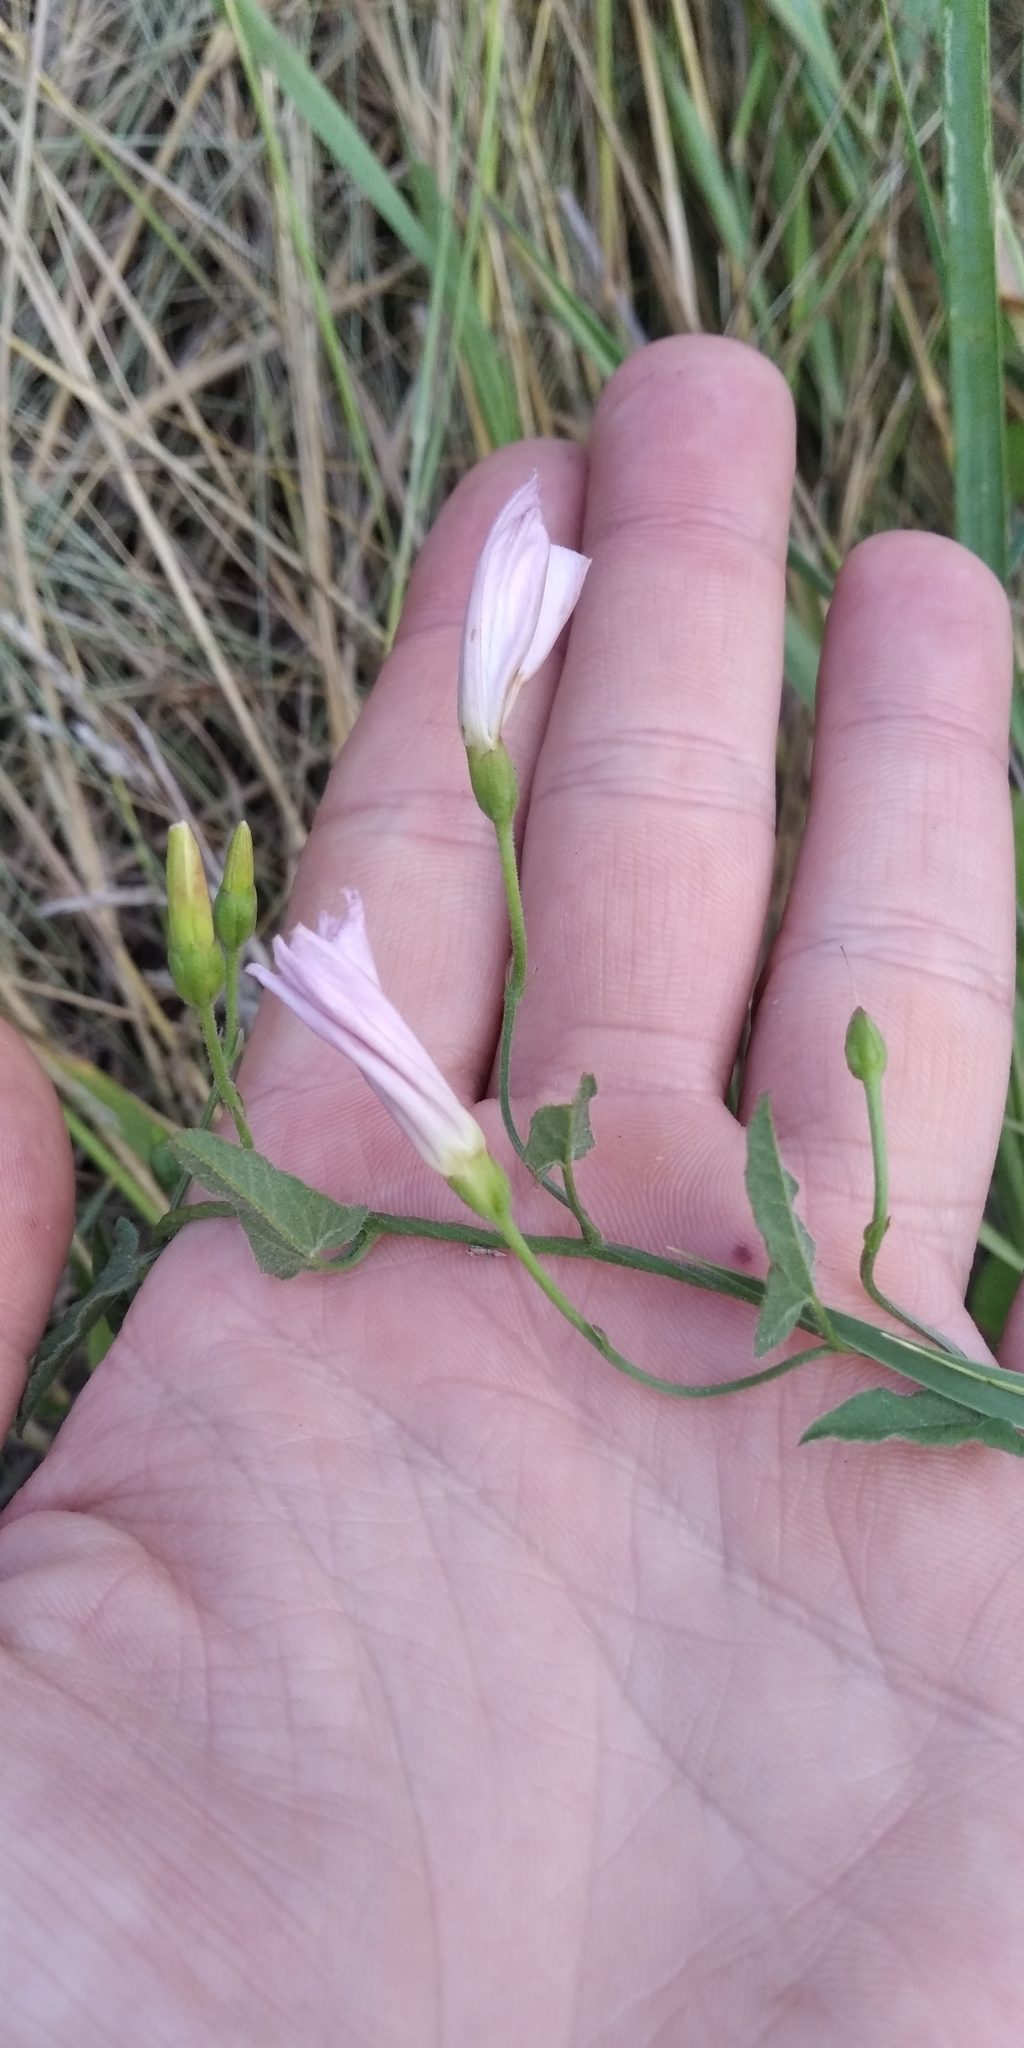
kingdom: Plantae
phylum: Tracheophyta
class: Magnoliopsida
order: Solanales
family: Convolvulaceae
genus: Convolvulus
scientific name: Convolvulus arvensis
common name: Field bindweed
